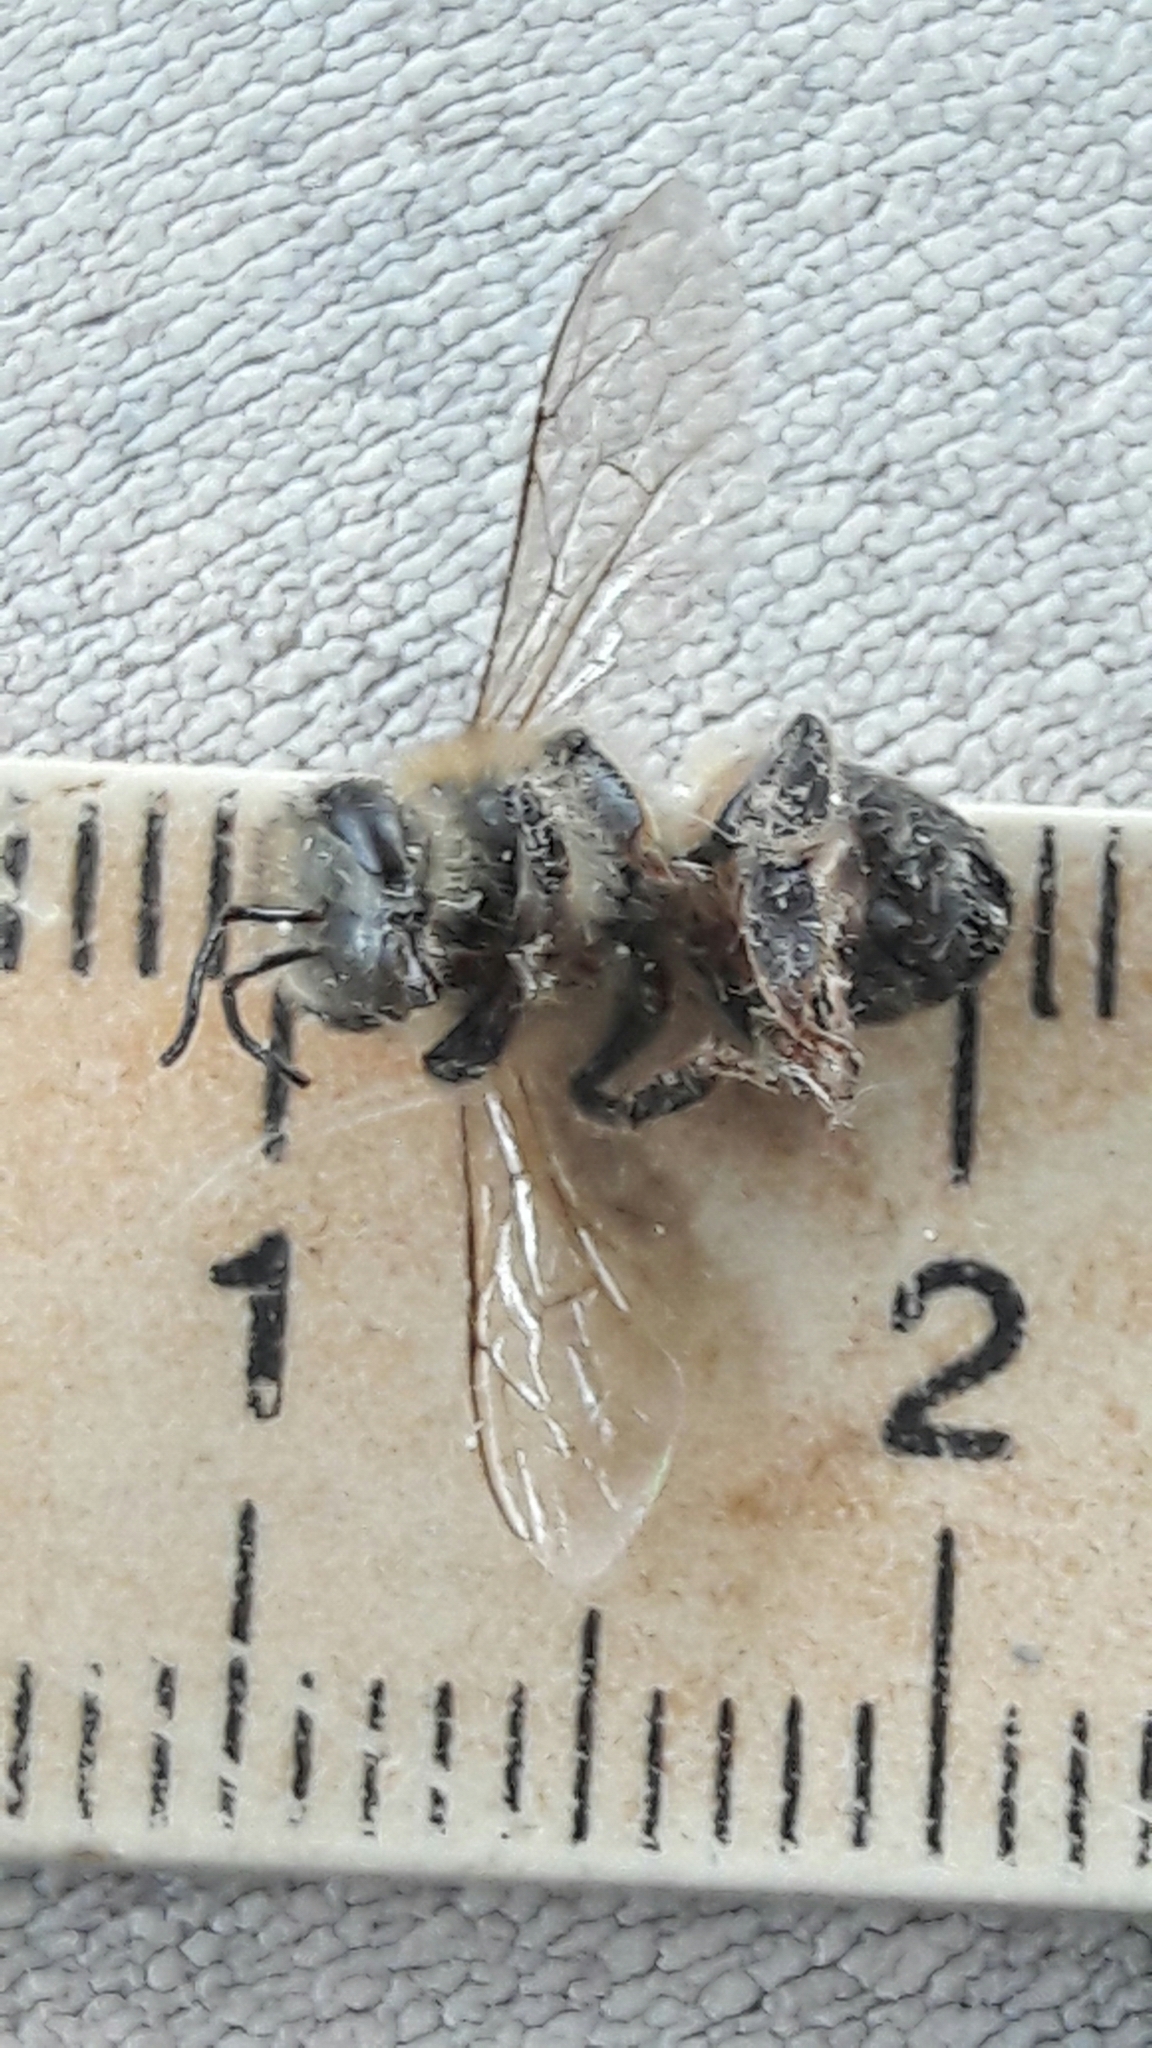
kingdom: Animalia
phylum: Arthropoda
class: Insecta
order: Hymenoptera
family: Apidae
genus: Apis
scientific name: Apis mellifera
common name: Honey bee
